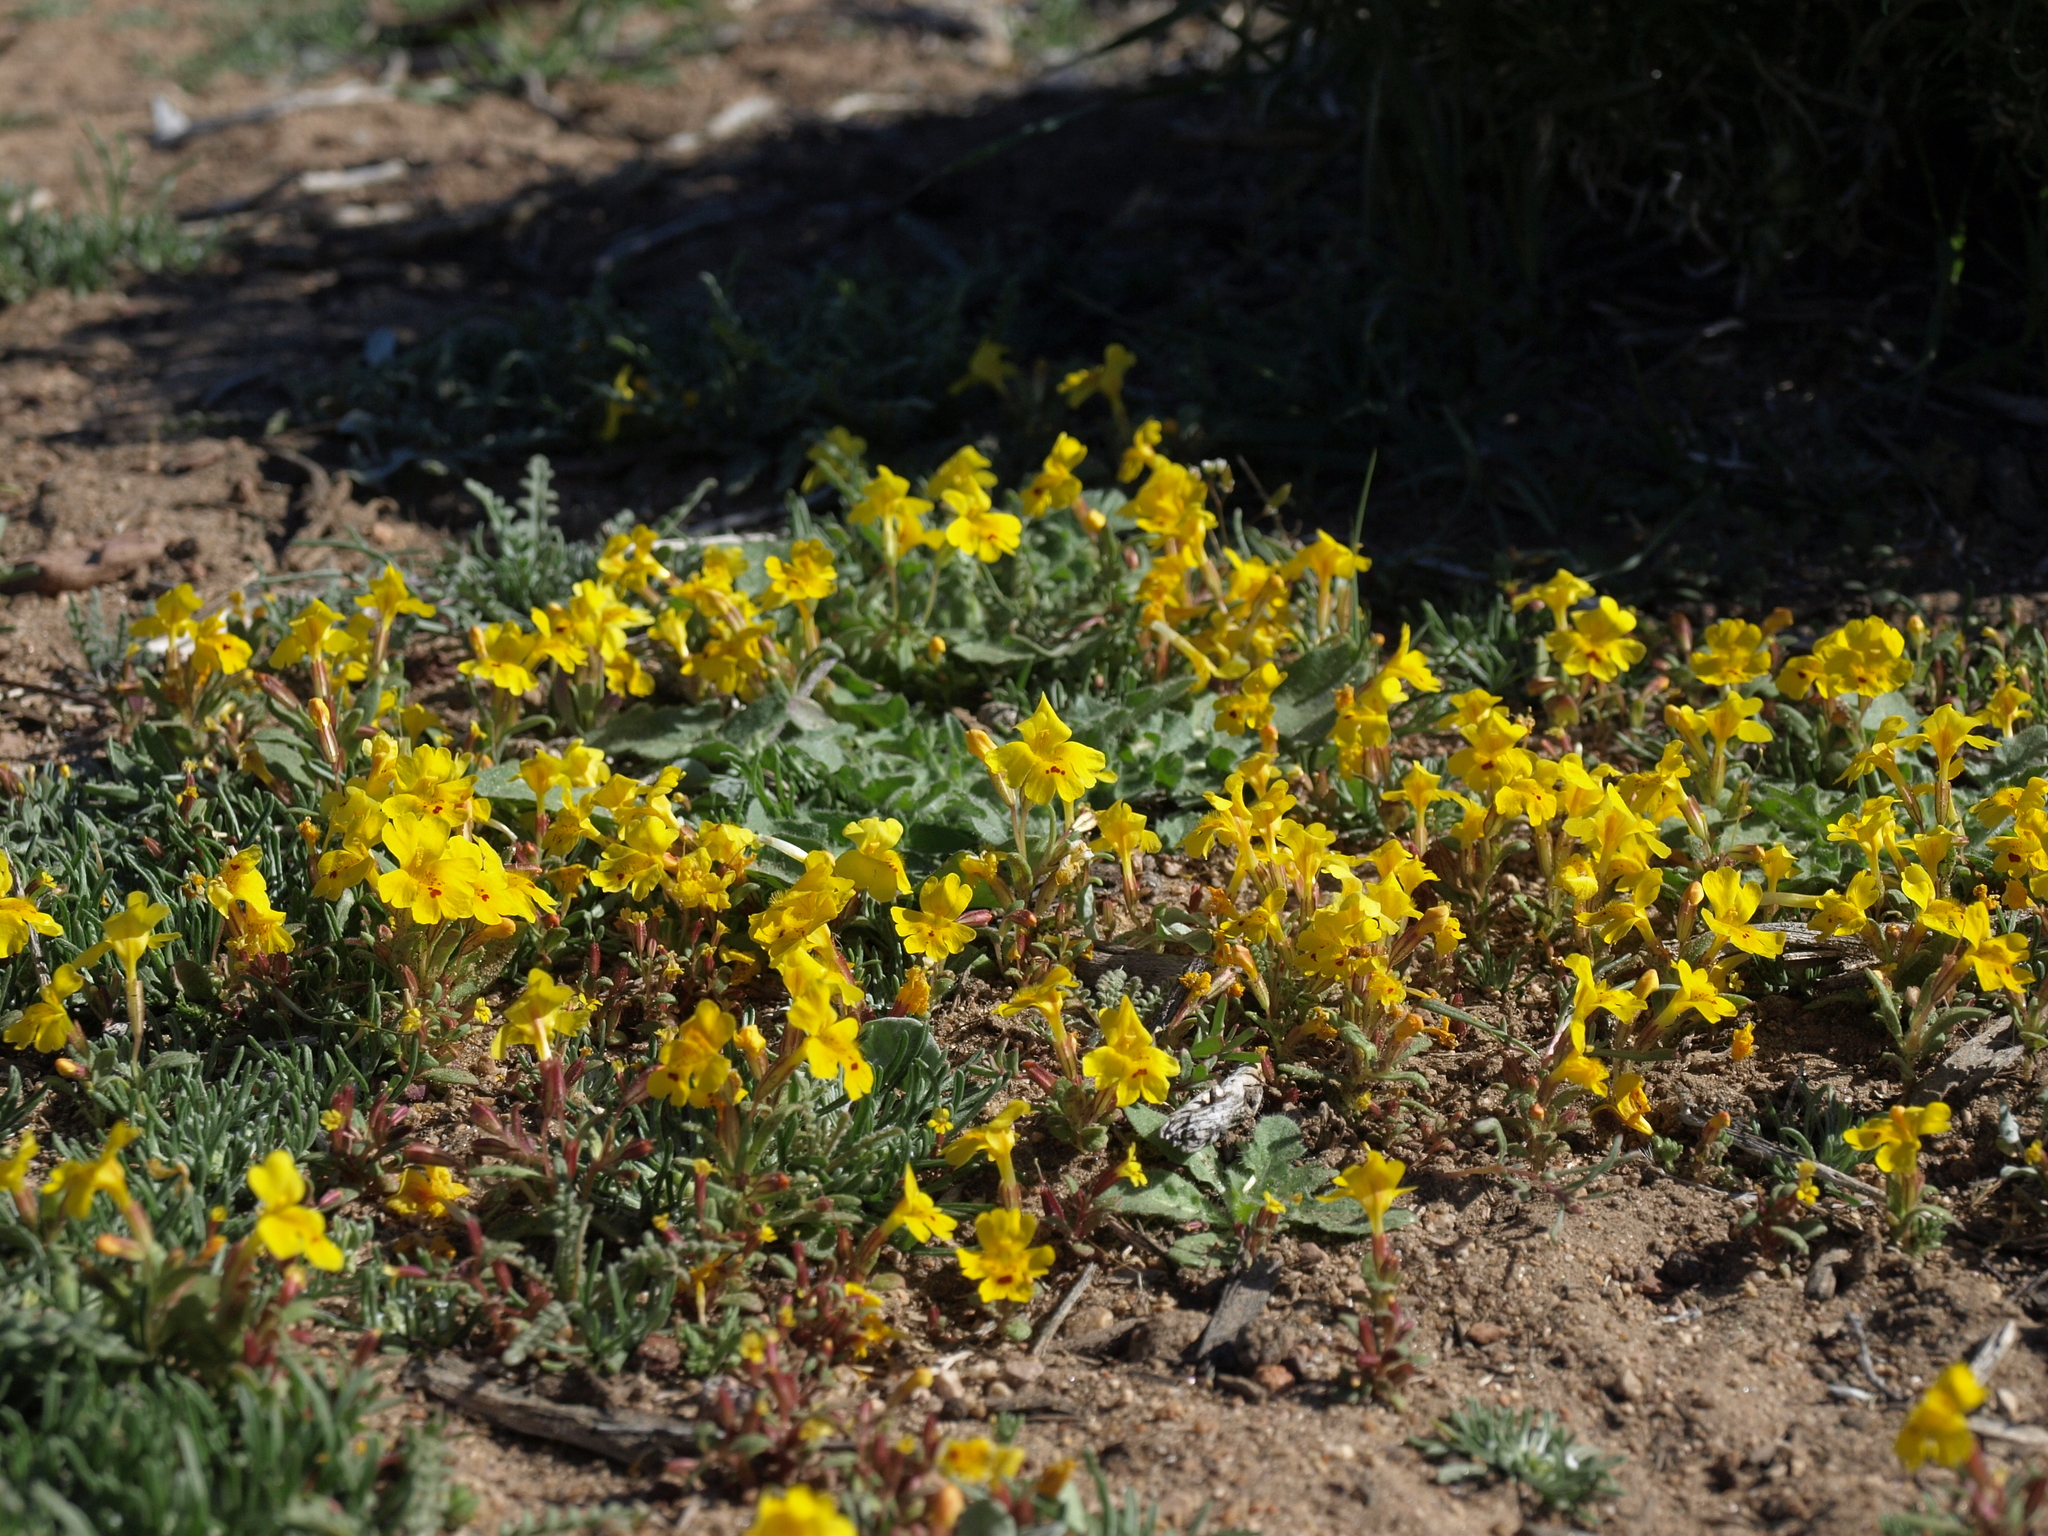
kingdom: Plantae
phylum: Tracheophyta
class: Magnoliopsida
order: Lamiales
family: Phrymaceae
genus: Erythranthe
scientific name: Erythranthe carsonensis
